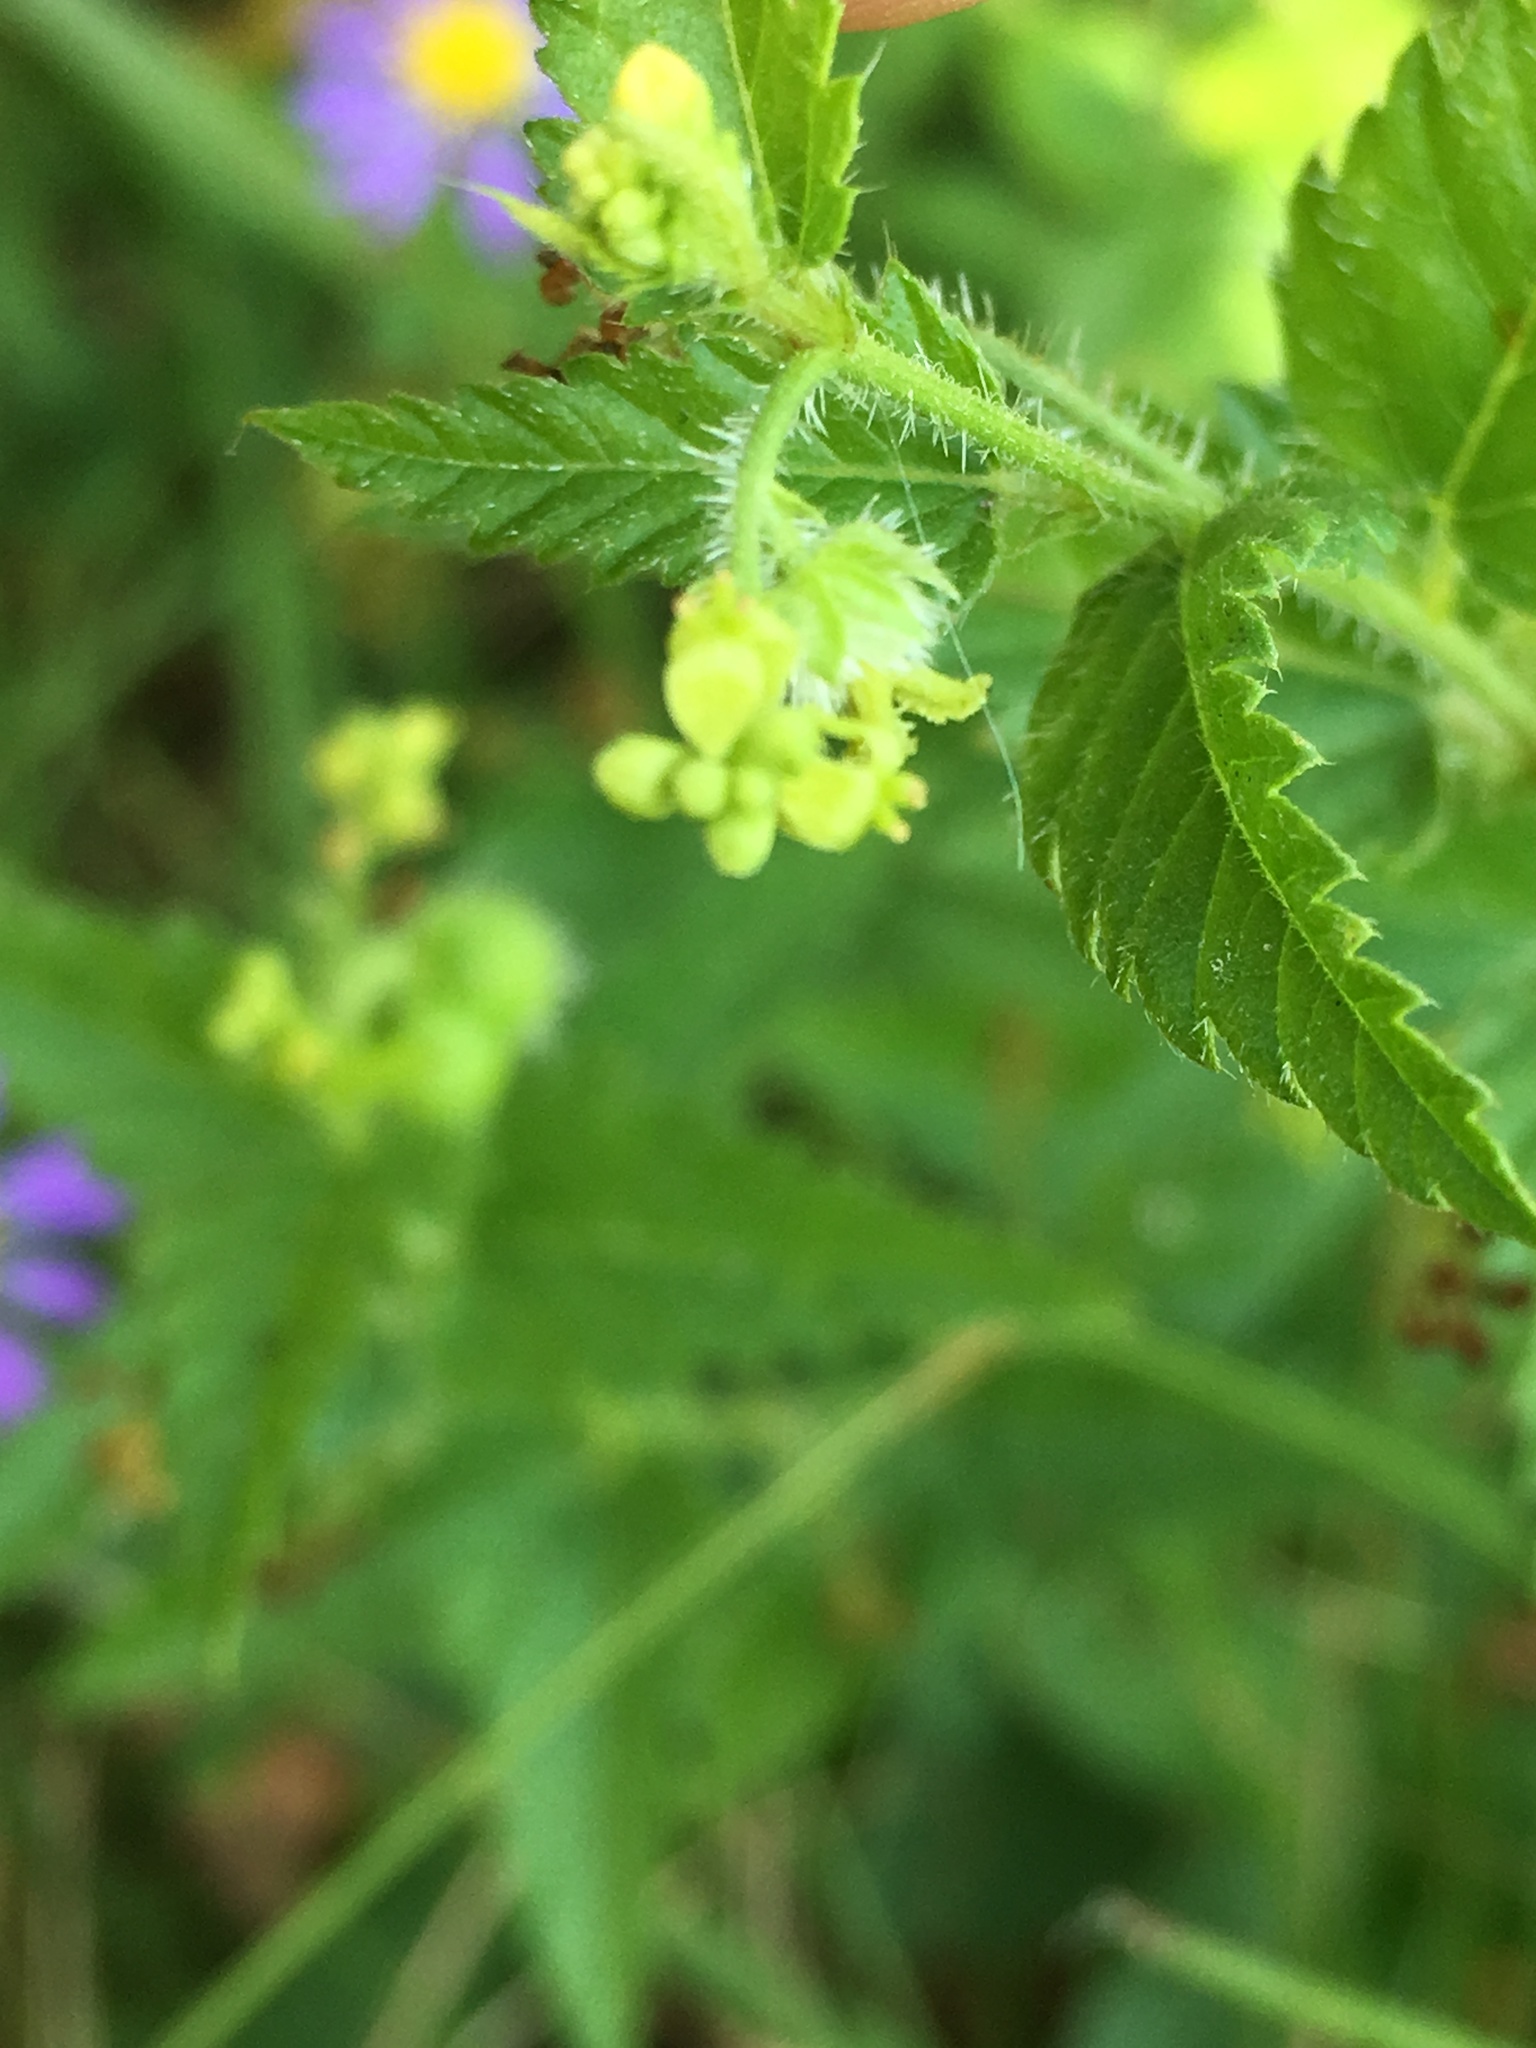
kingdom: Plantae
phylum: Tracheophyta
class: Magnoliopsida
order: Malpighiales
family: Euphorbiaceae
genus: Tragia
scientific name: Tragia urticifolia
